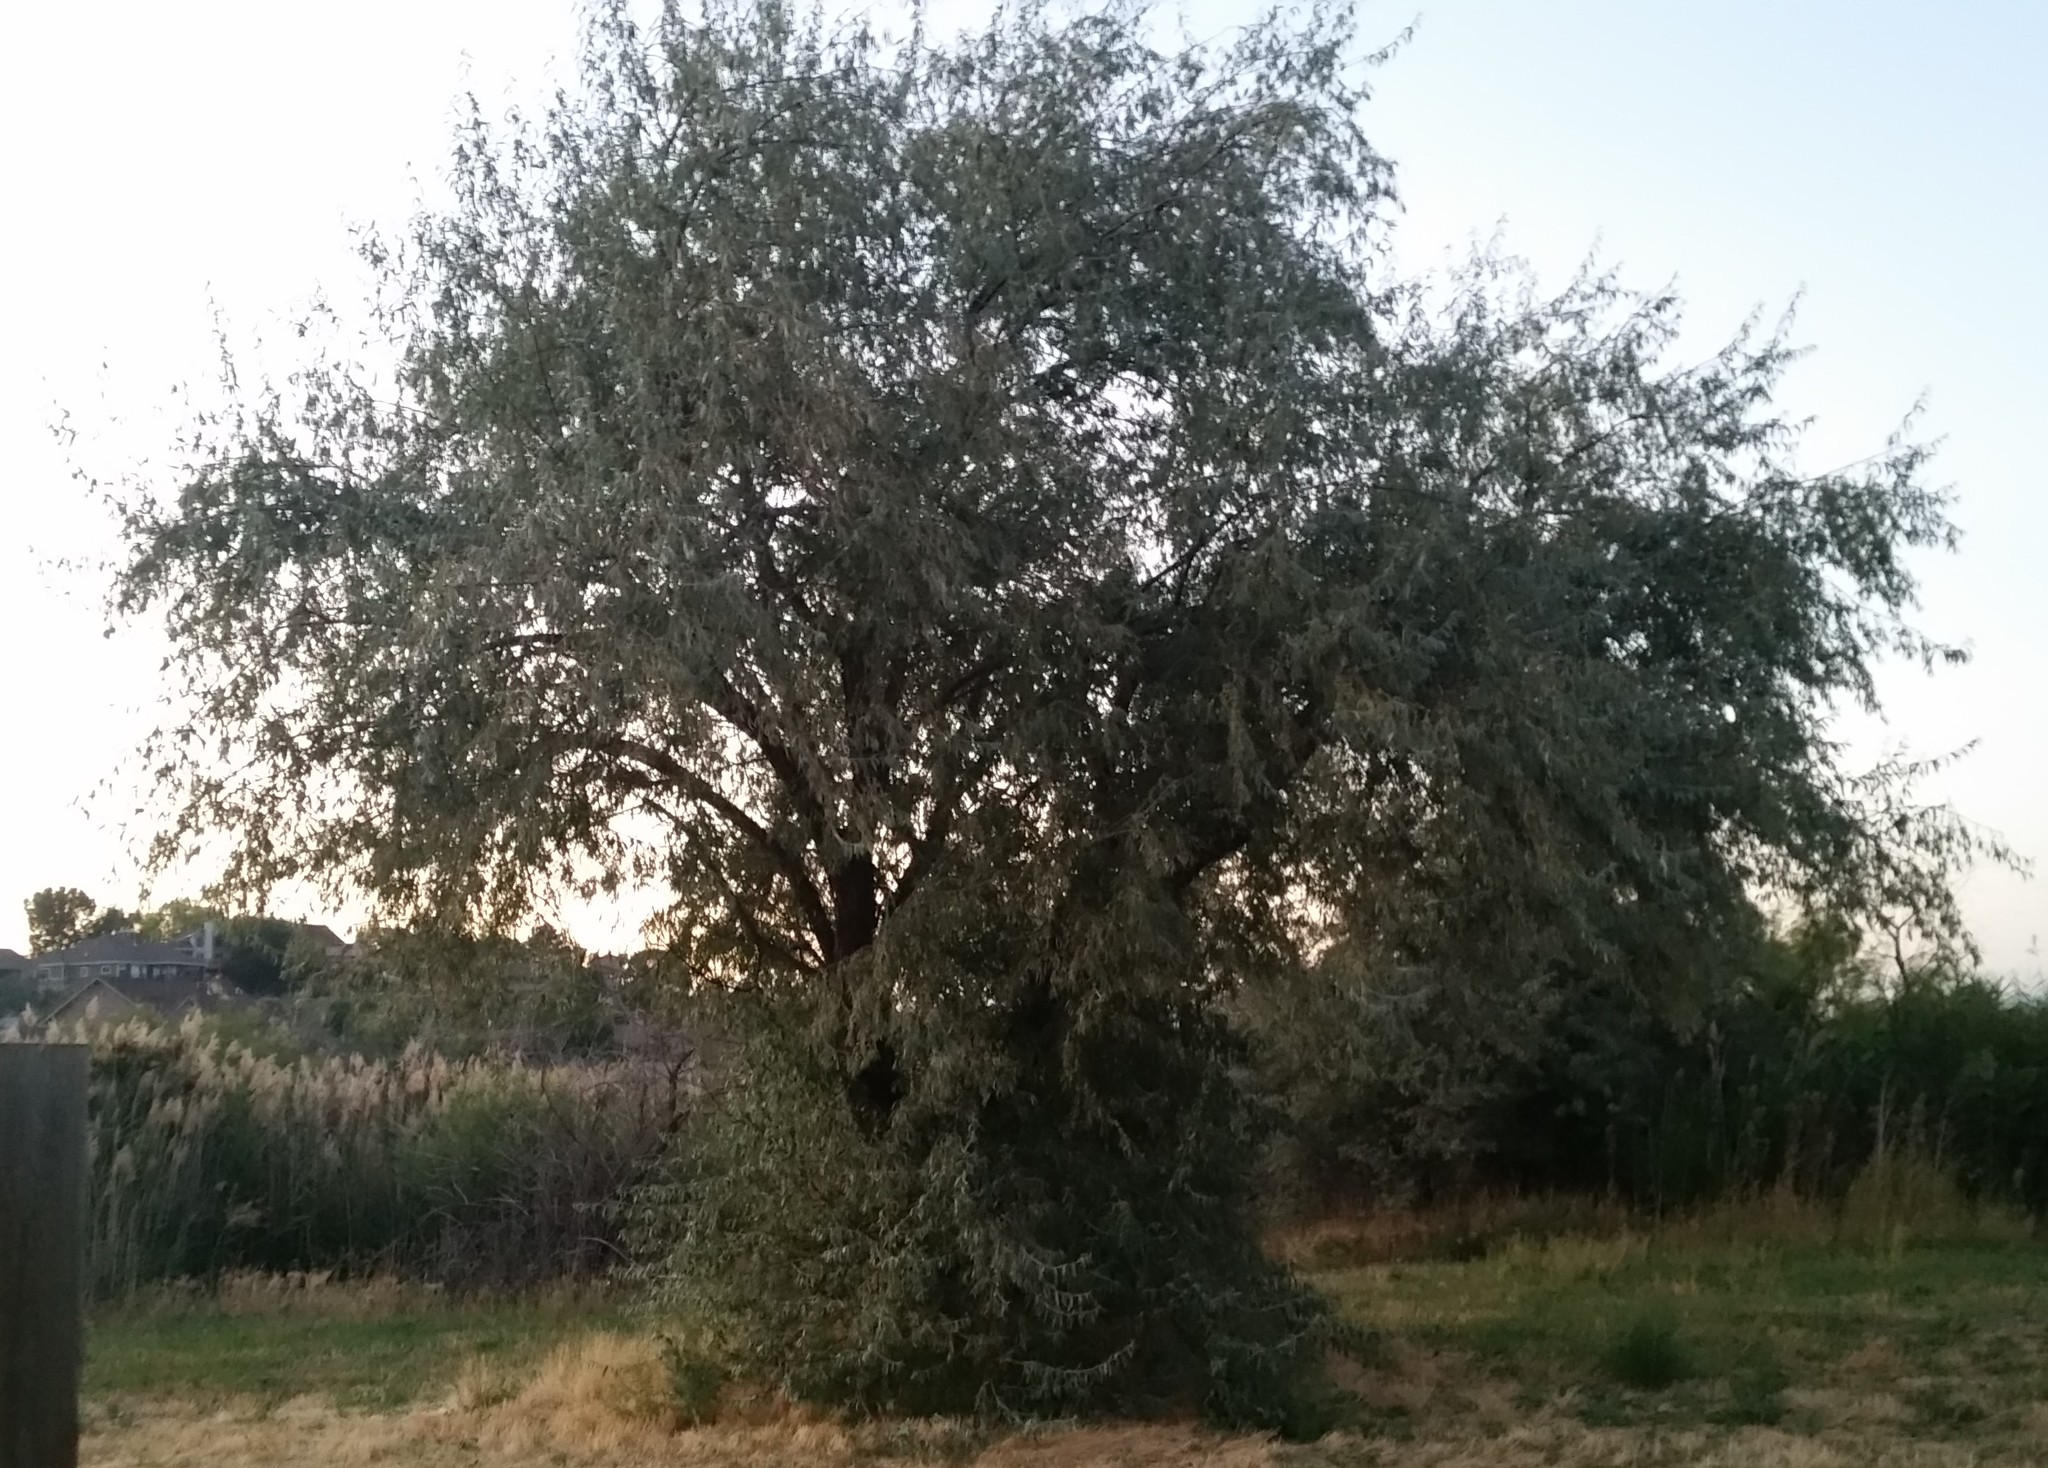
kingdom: Plantae
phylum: Tracheophyta
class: Magnoliopsida
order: Rosales
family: Elaeagnaceae
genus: Elaeagnus
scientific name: Elaeagnus angustifolia
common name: Russian olive
